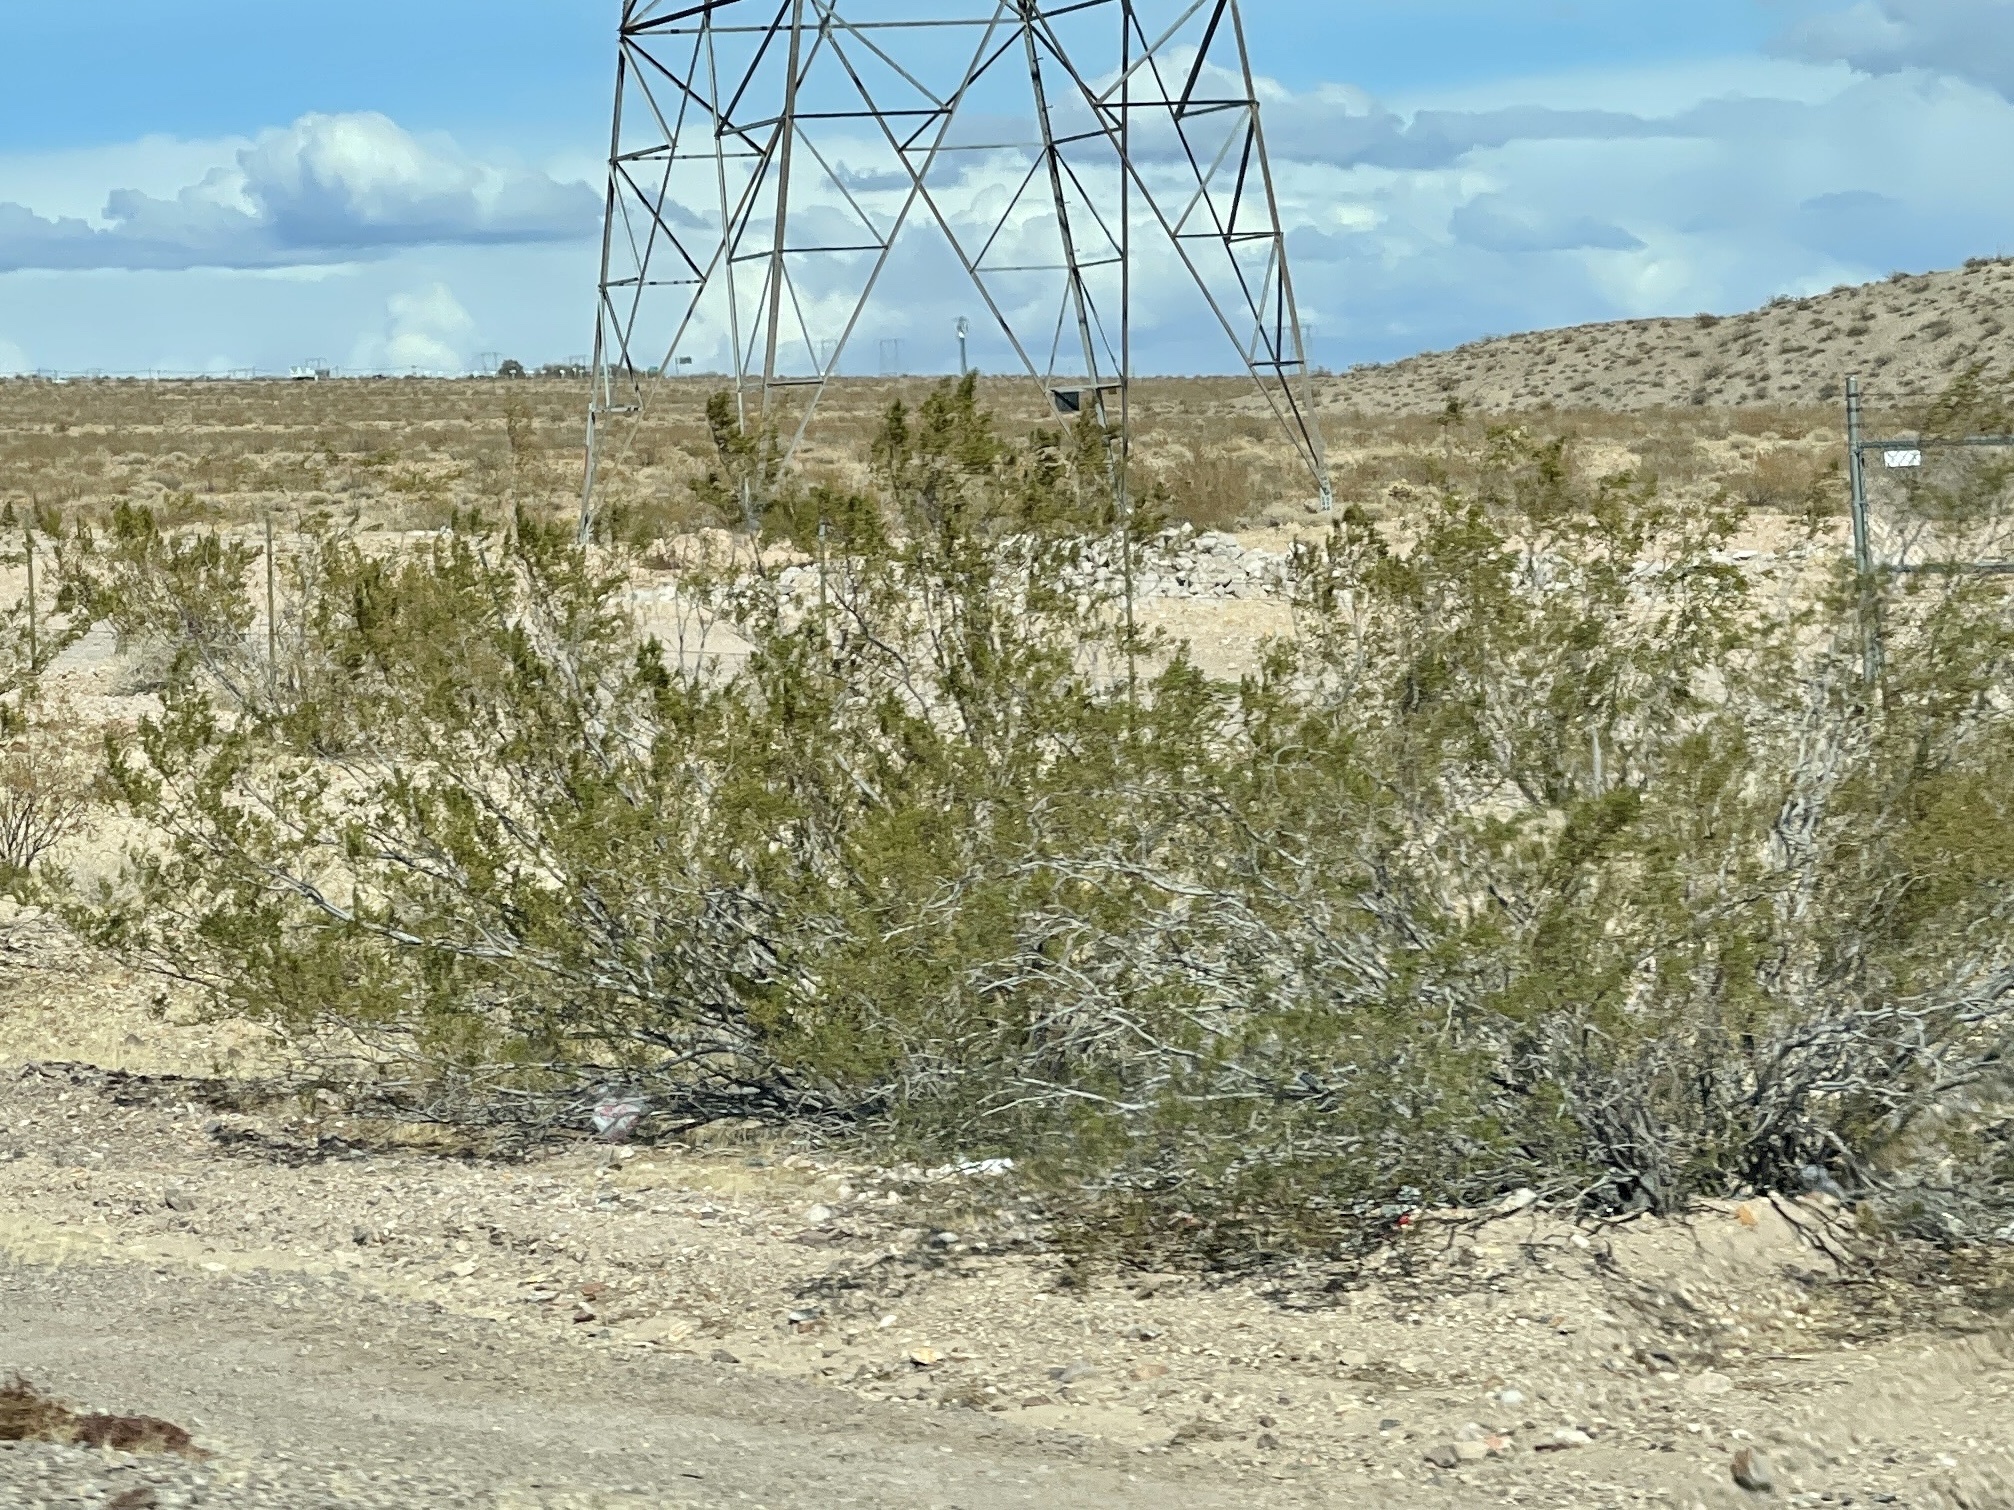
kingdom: Plantae
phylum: Tracheophyta
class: Magnoliopsida
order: Zygophyllales
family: Zygophyllaceae
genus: Larrea
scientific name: Larrea tridentata
